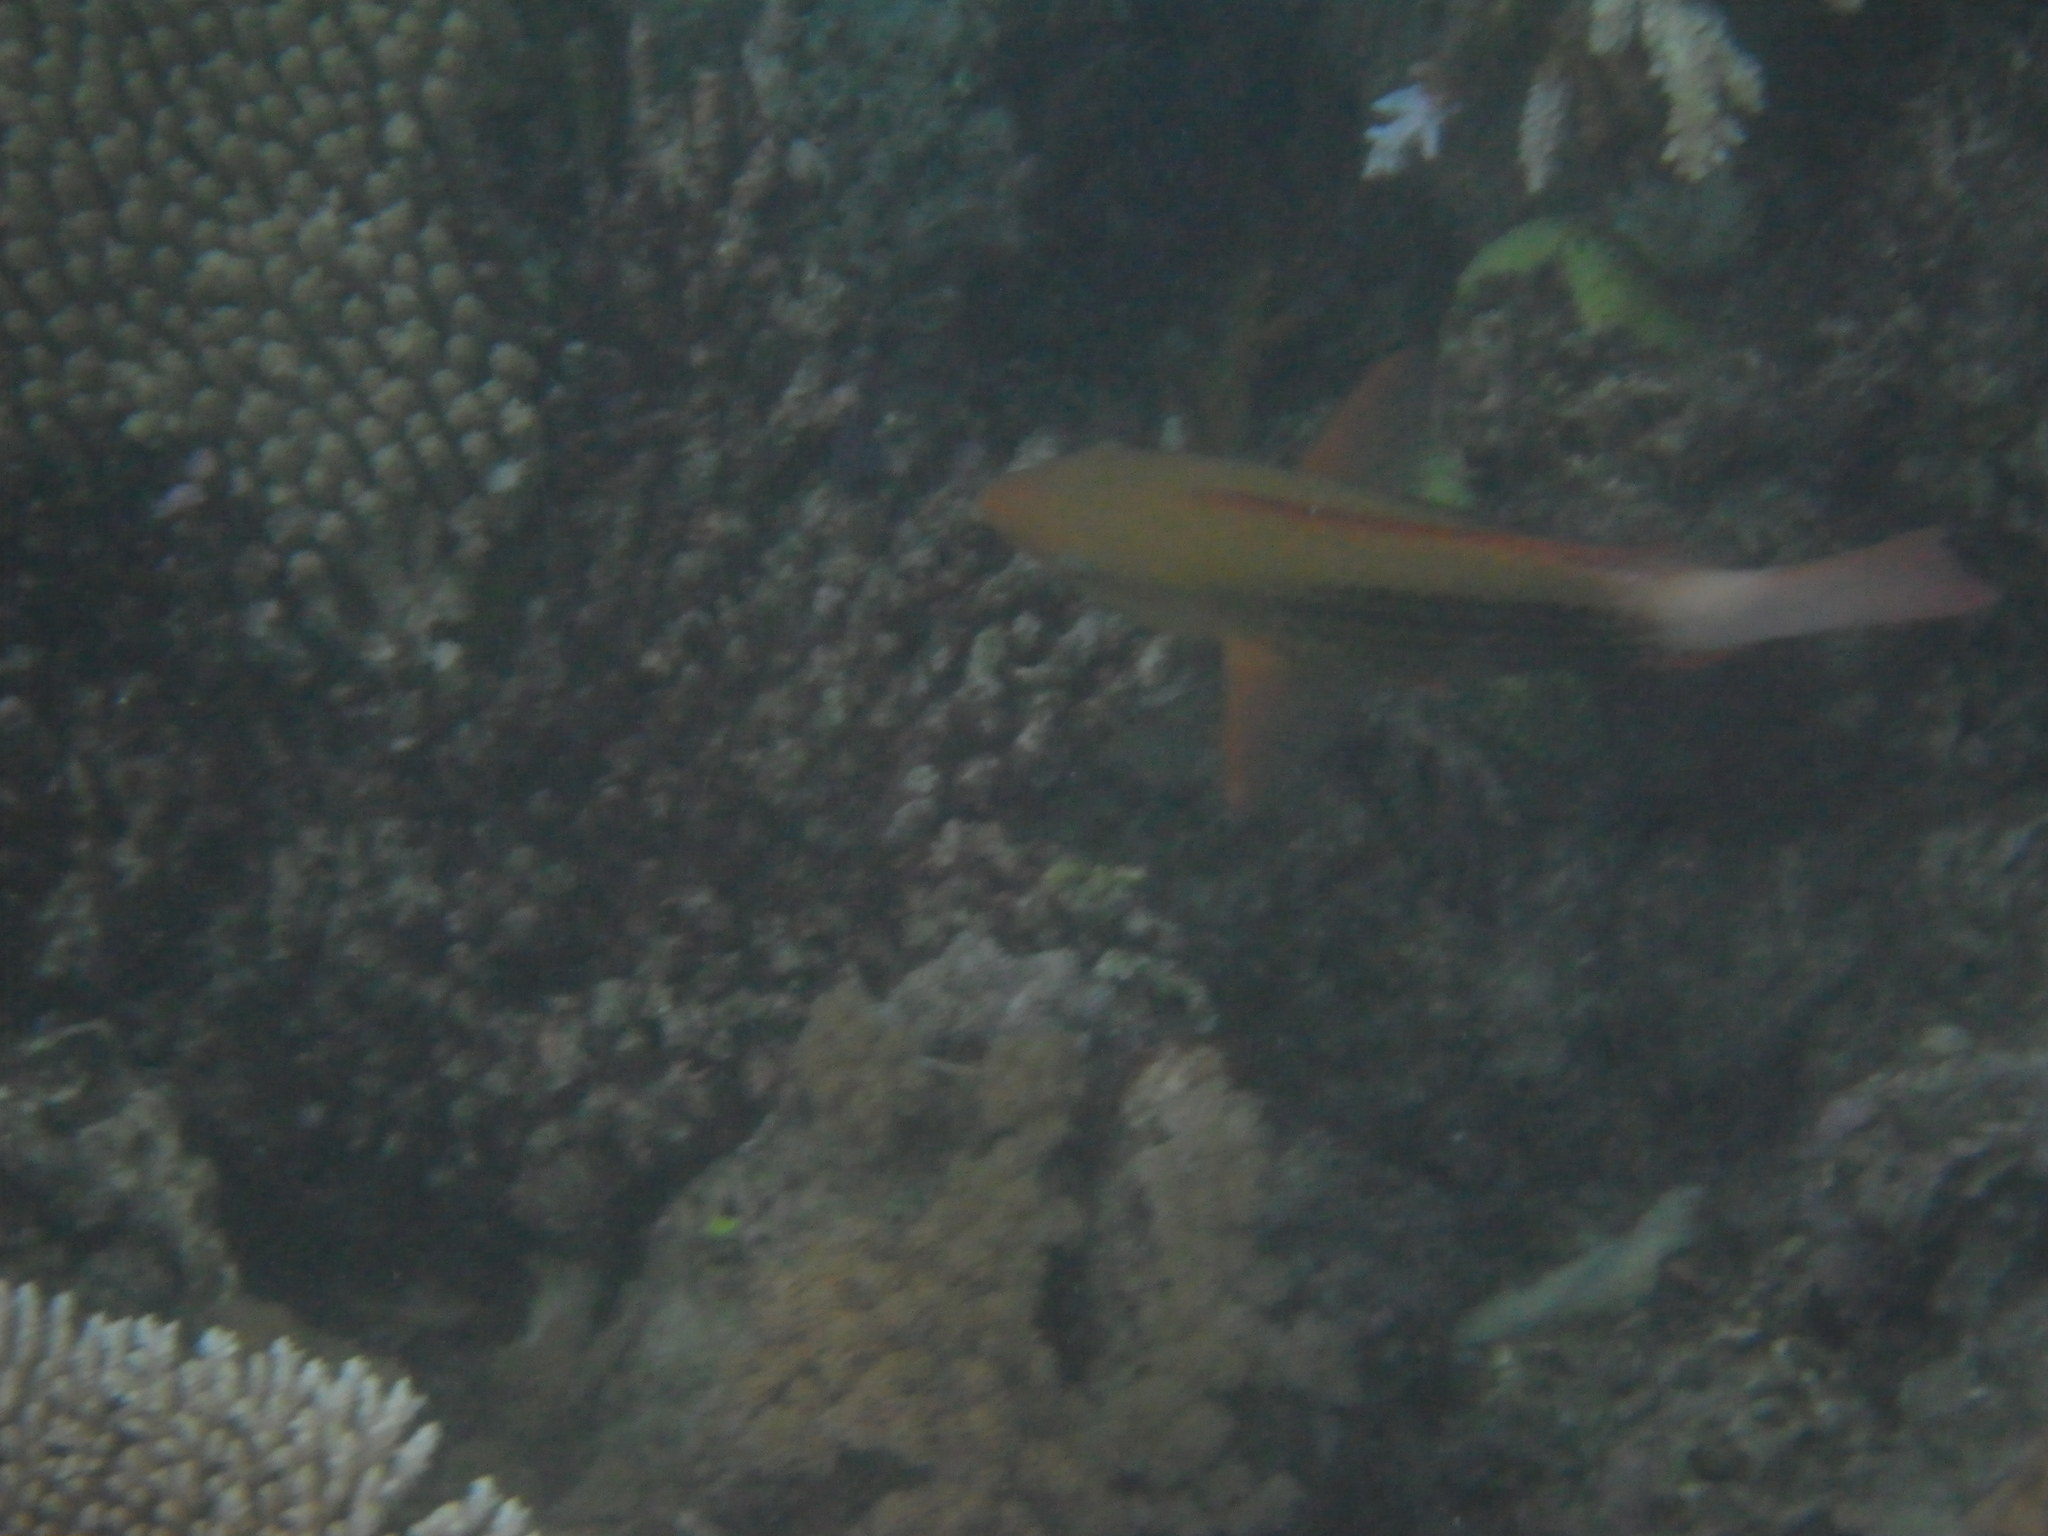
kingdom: Animalia
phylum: Chordata
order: Perciformes
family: Scaridae
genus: Scarus
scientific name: Scarus frenatus
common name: Bridled parrotfish
